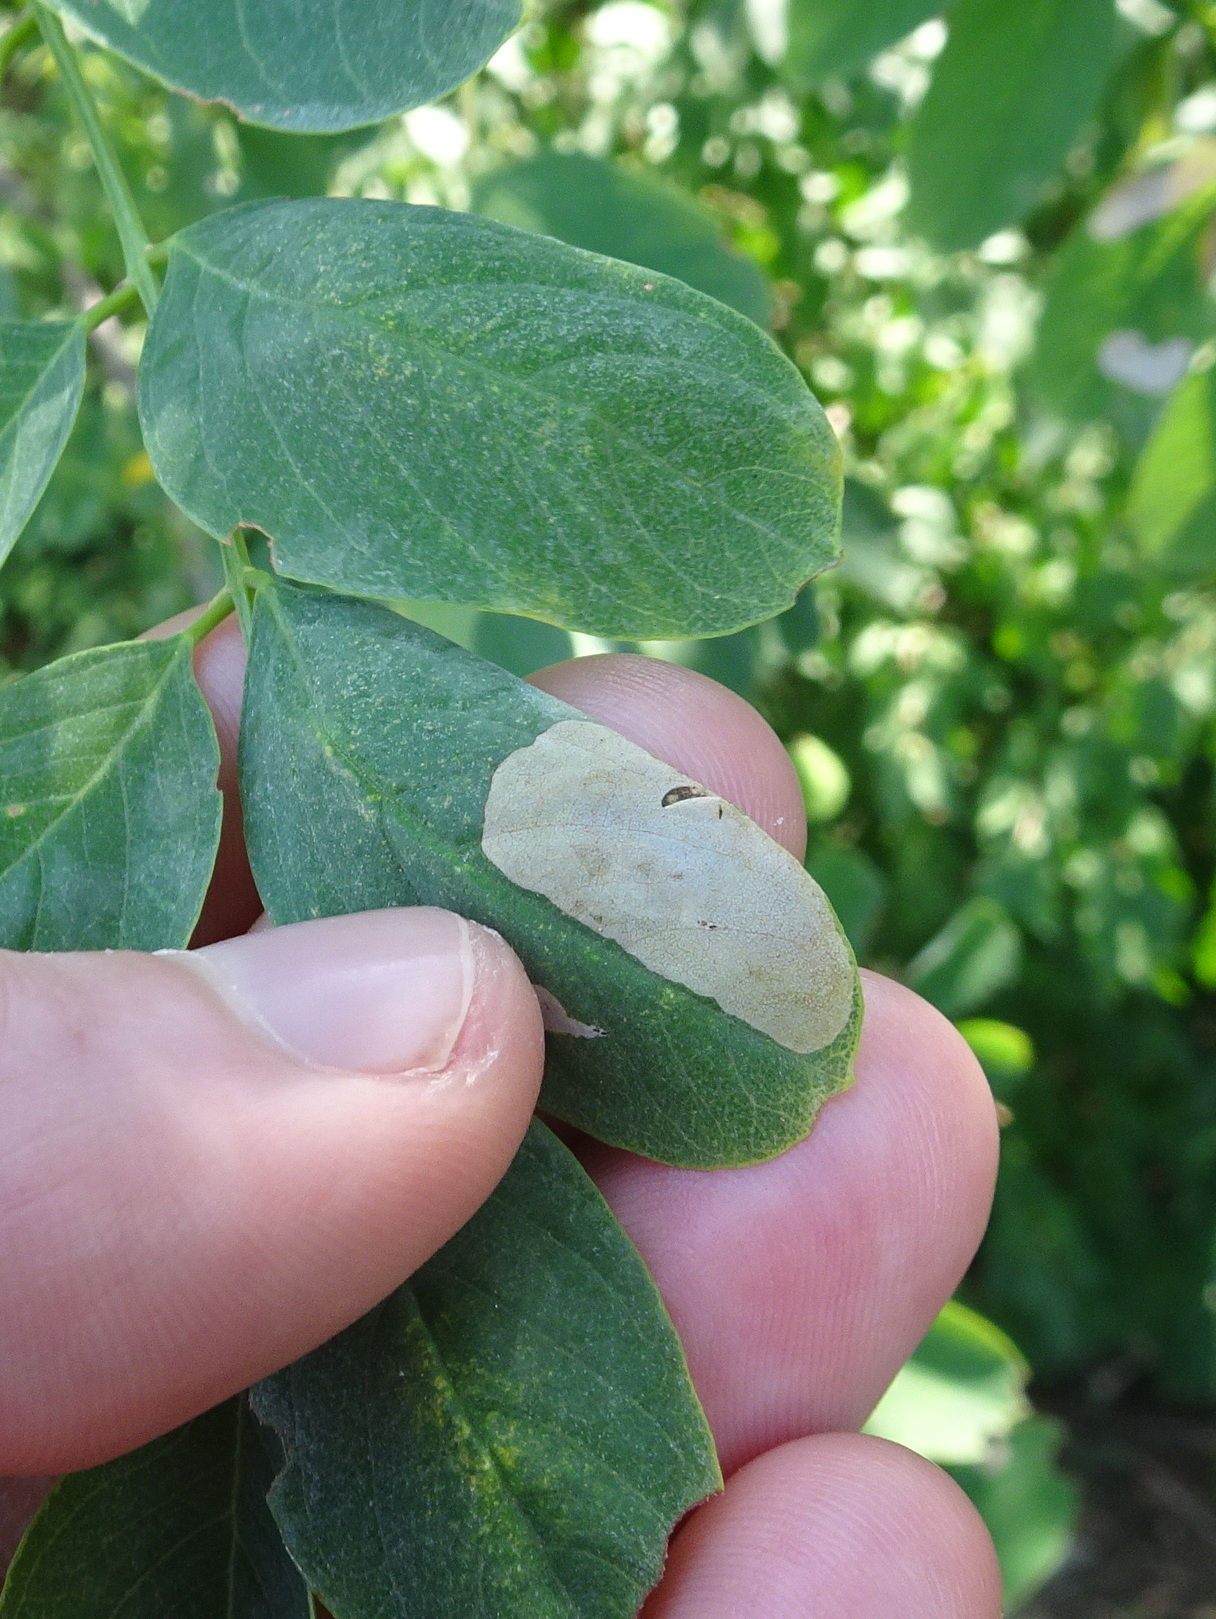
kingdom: Animalia
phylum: Arthropoda
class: Insecta
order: Lepidoptera
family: Gracillariidae
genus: Chrysaster
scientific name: Chrysaster ostensackenella
